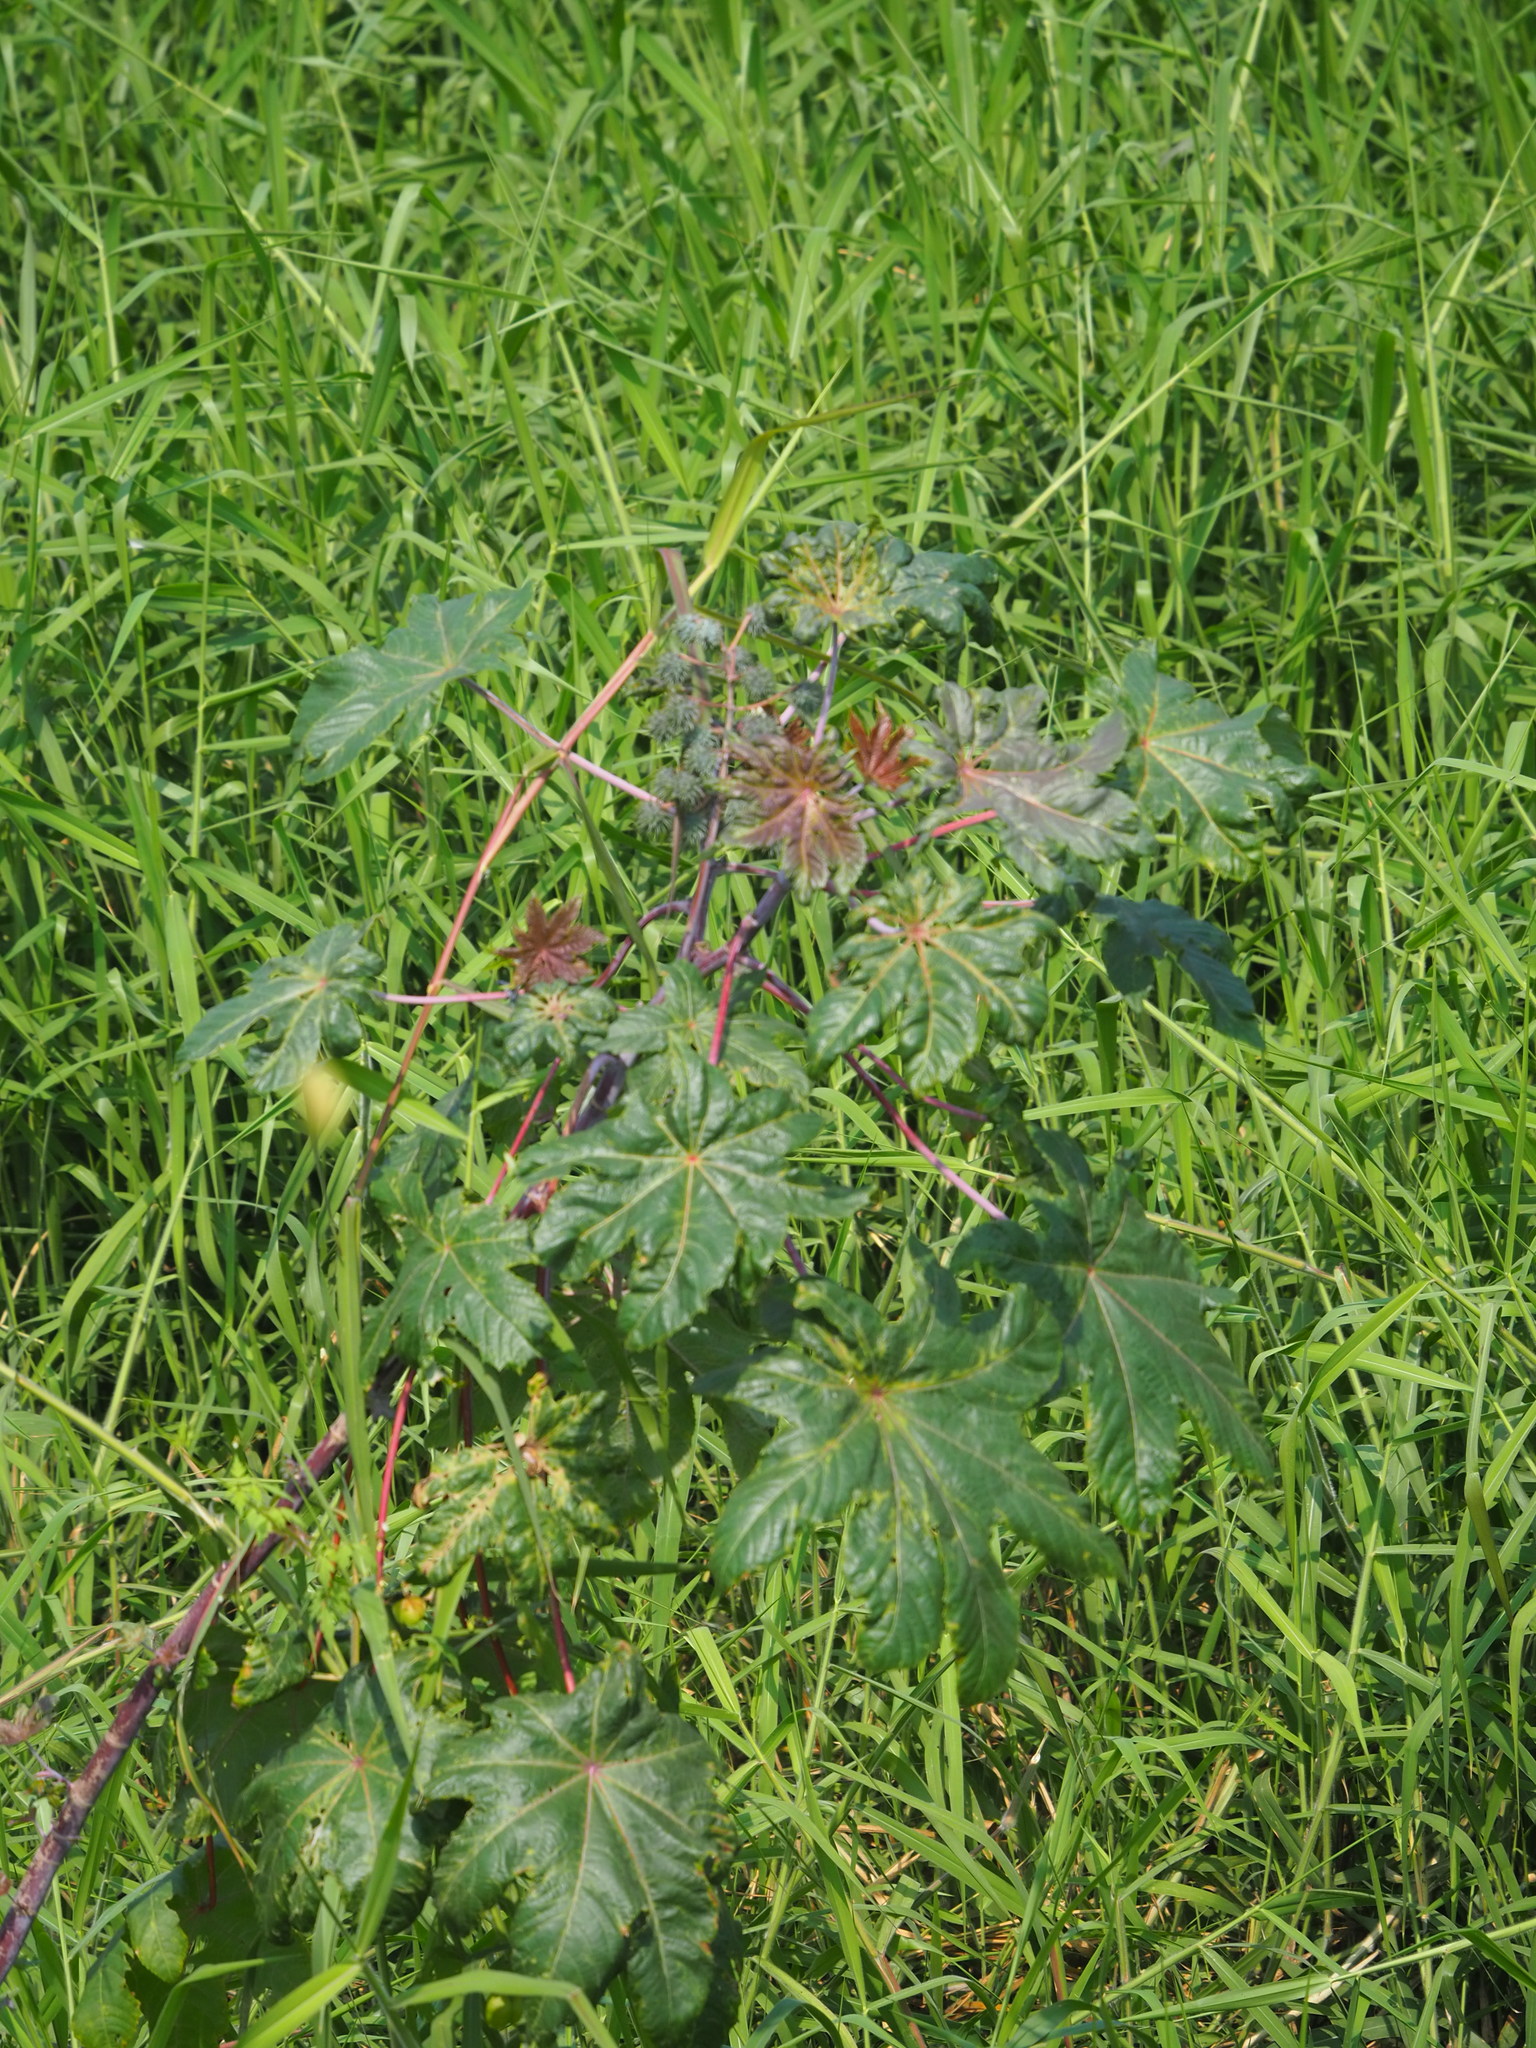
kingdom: Plantae
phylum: Tracheophyta
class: Magnoliopsida
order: Malpighiales
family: Euphorbiaceae
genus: Ricinus
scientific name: Ricinus communis
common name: Castor-oil-plant
